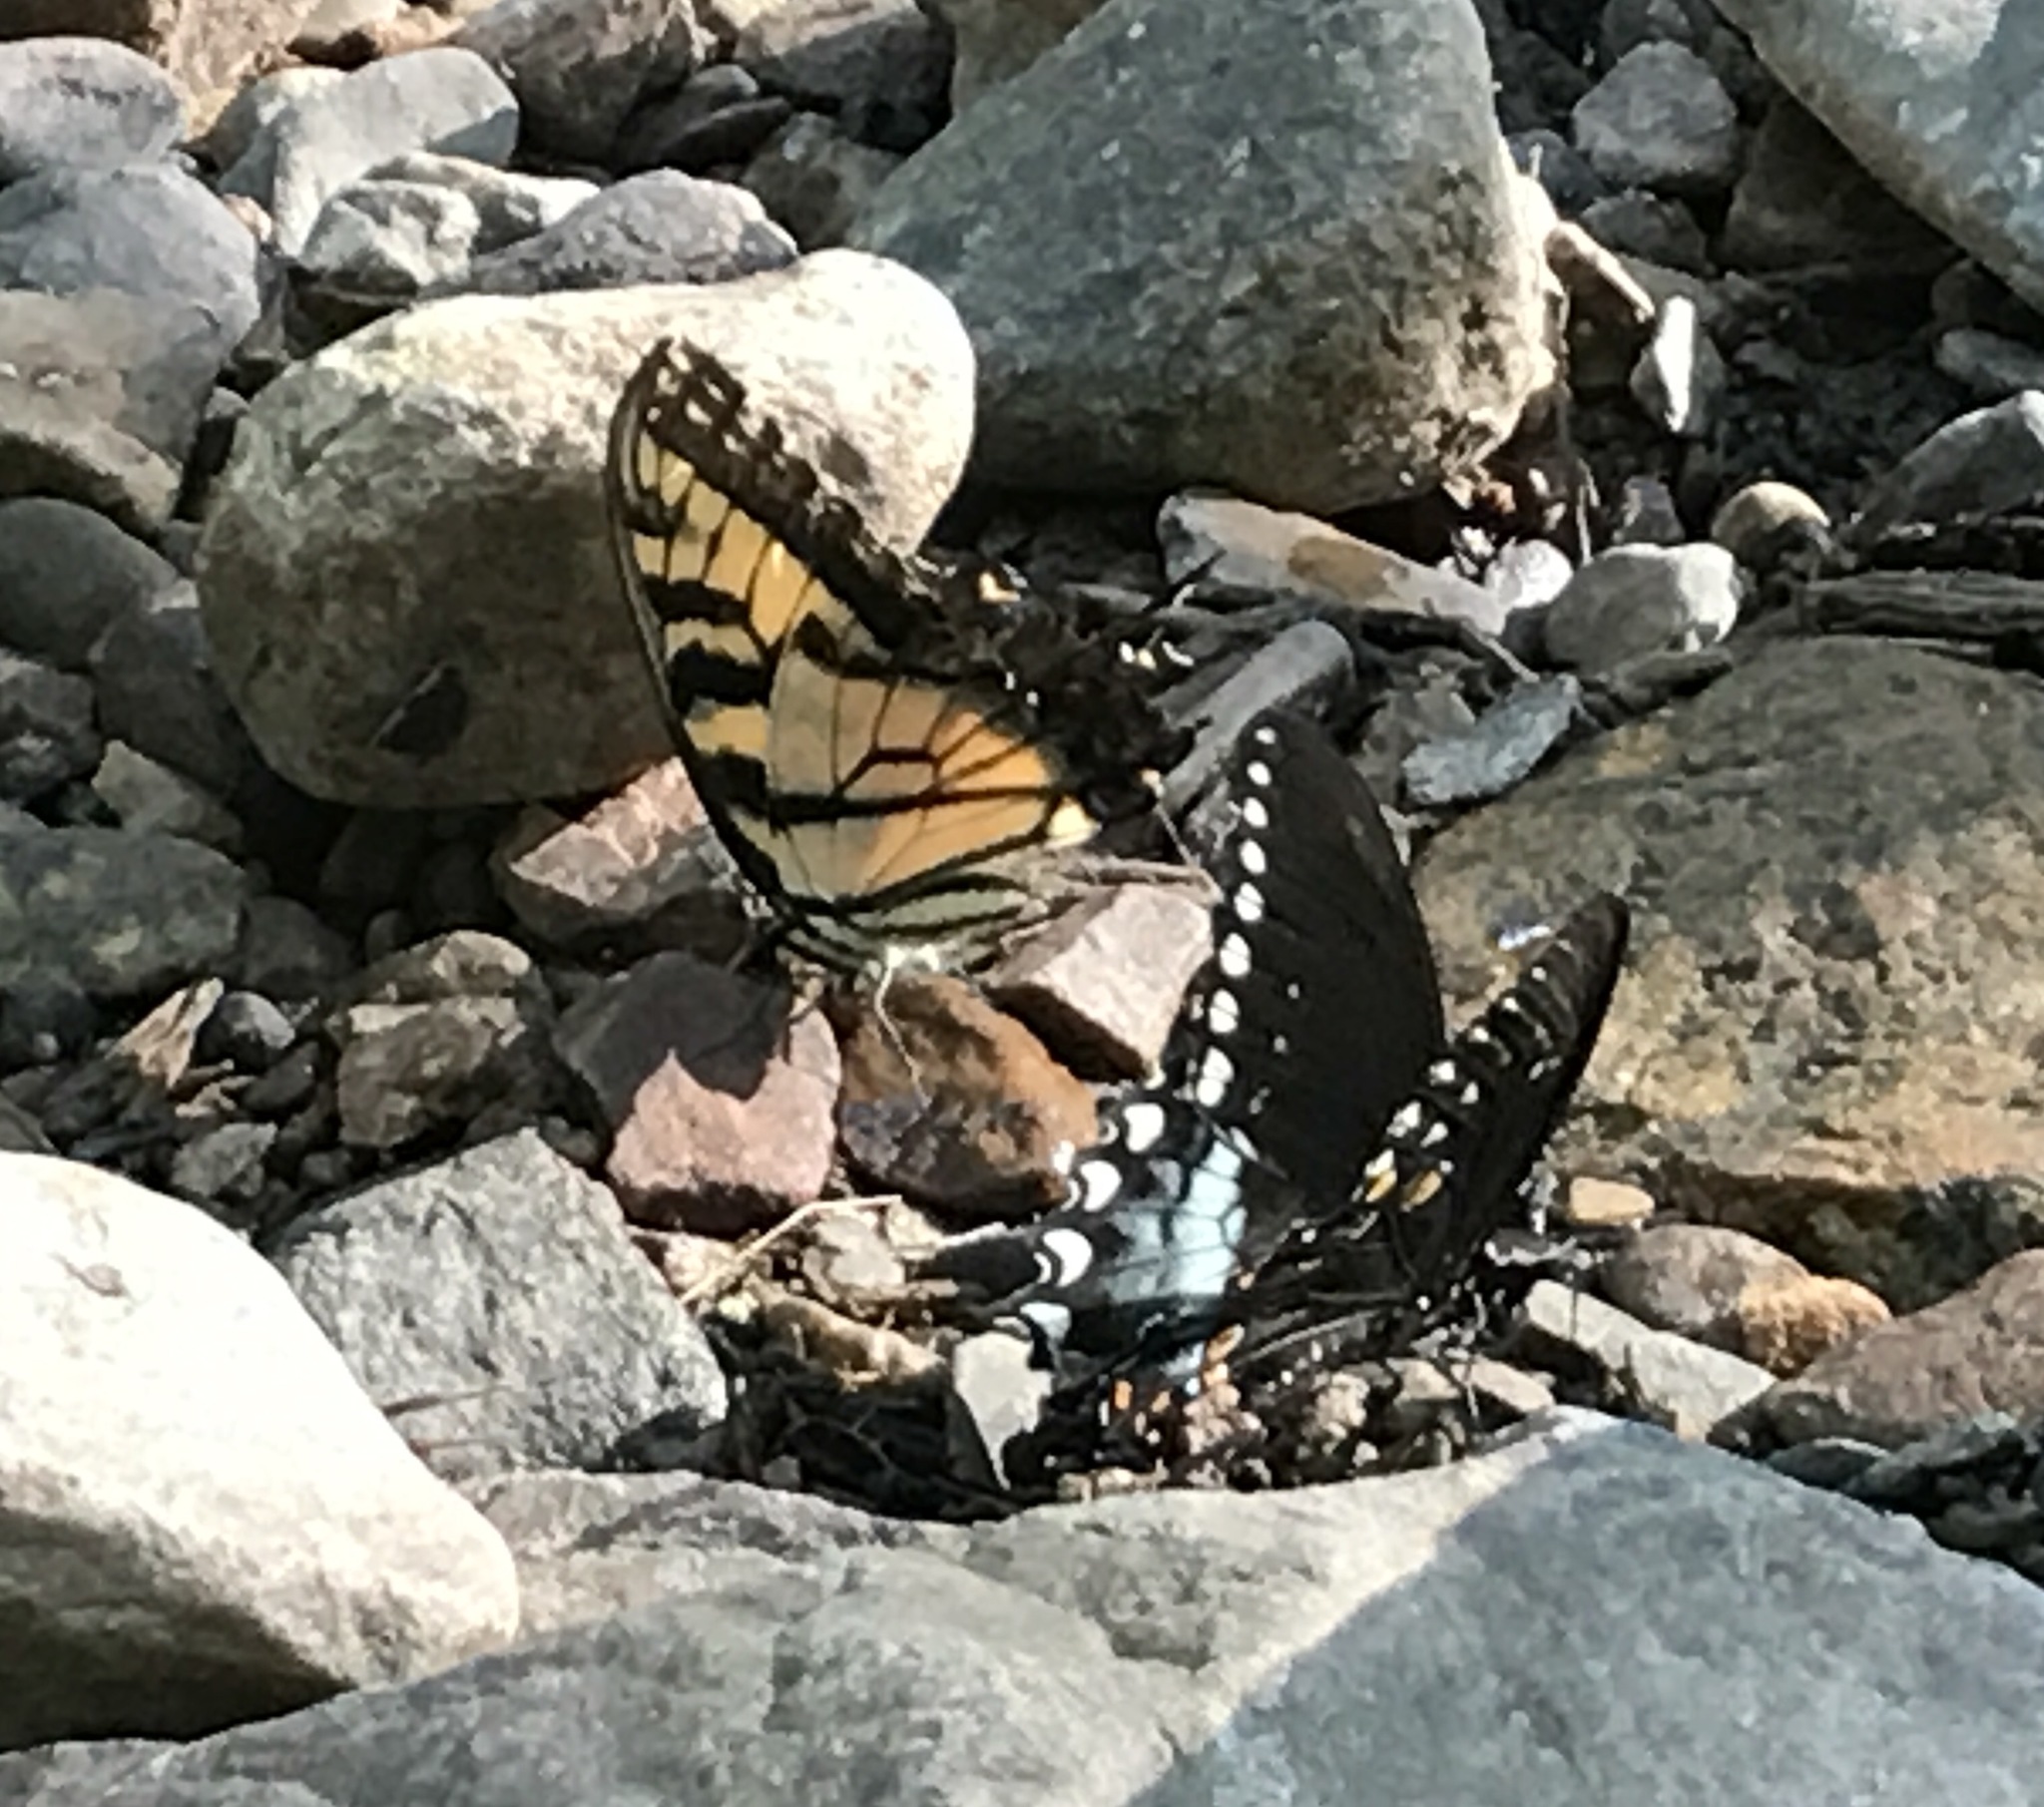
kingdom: Animalia
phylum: Arthropoda
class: Insecta
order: Lepidoptera
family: Papilionidae
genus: Papilio
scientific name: Papilio glaucus
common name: Tiger swallowtail
